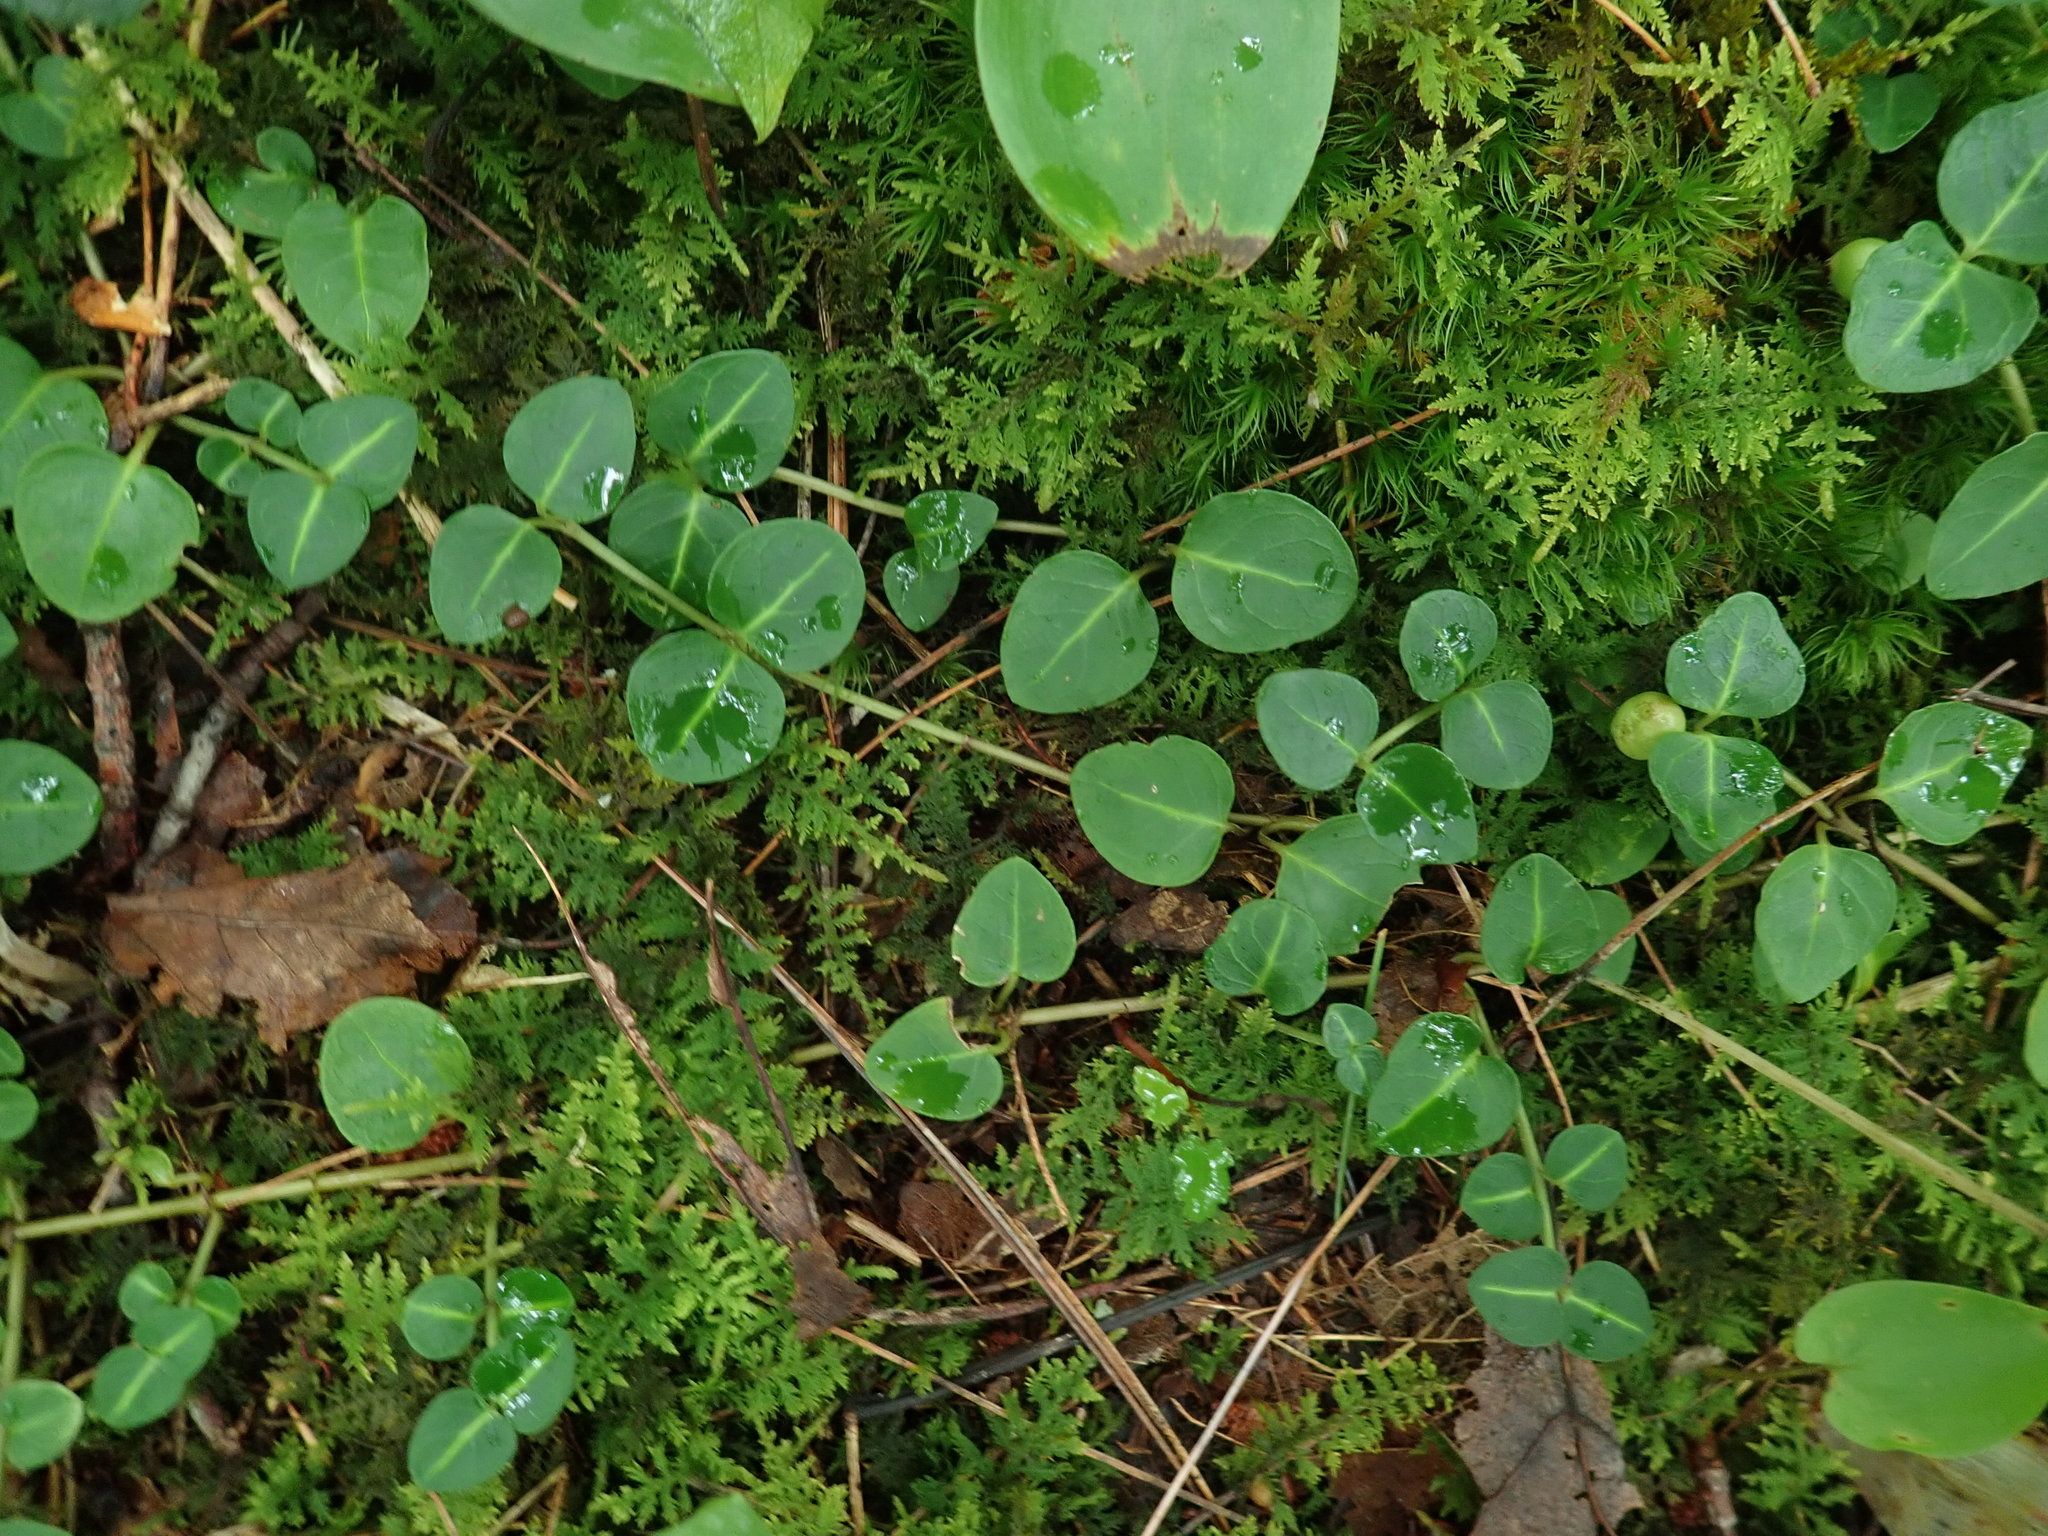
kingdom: Plantae
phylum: Tracheophyta
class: Magnoliopsida
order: Gentianales
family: Rubiaceae
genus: Mitchella
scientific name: Mitchella repens
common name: Partridge-berry
